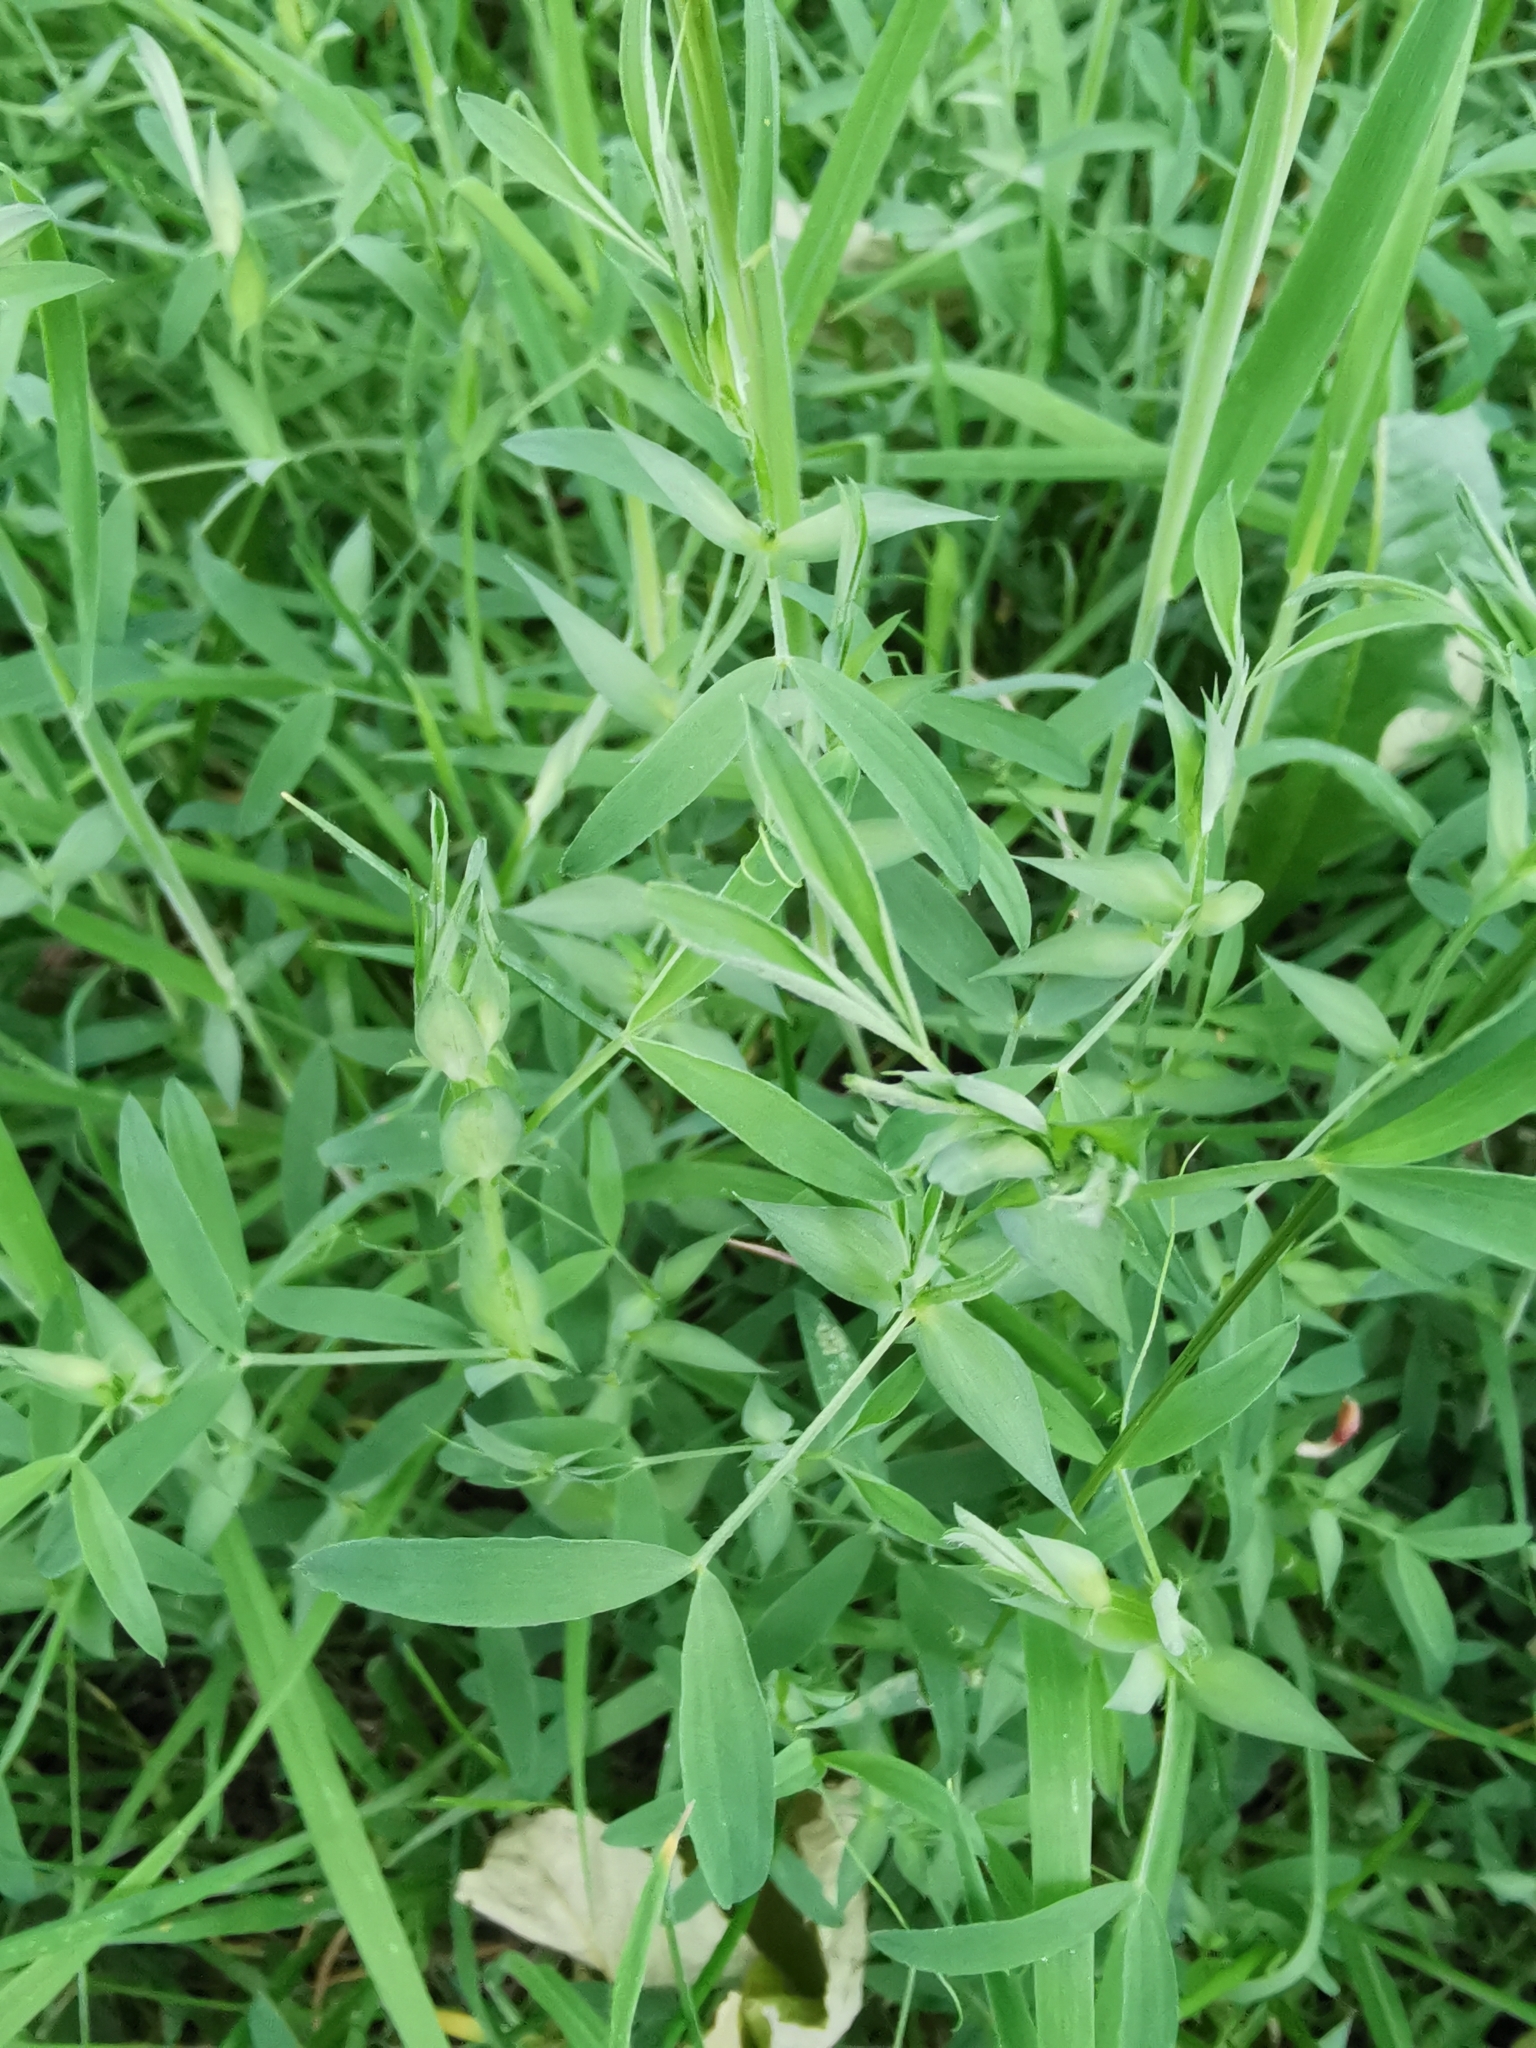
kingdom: Plantae
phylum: Tracheophyta
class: Magnoliopsida
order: Fabales
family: Fabaceae
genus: Lathyrus
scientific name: Lathyrus pratensis
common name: Meadow vetchling
